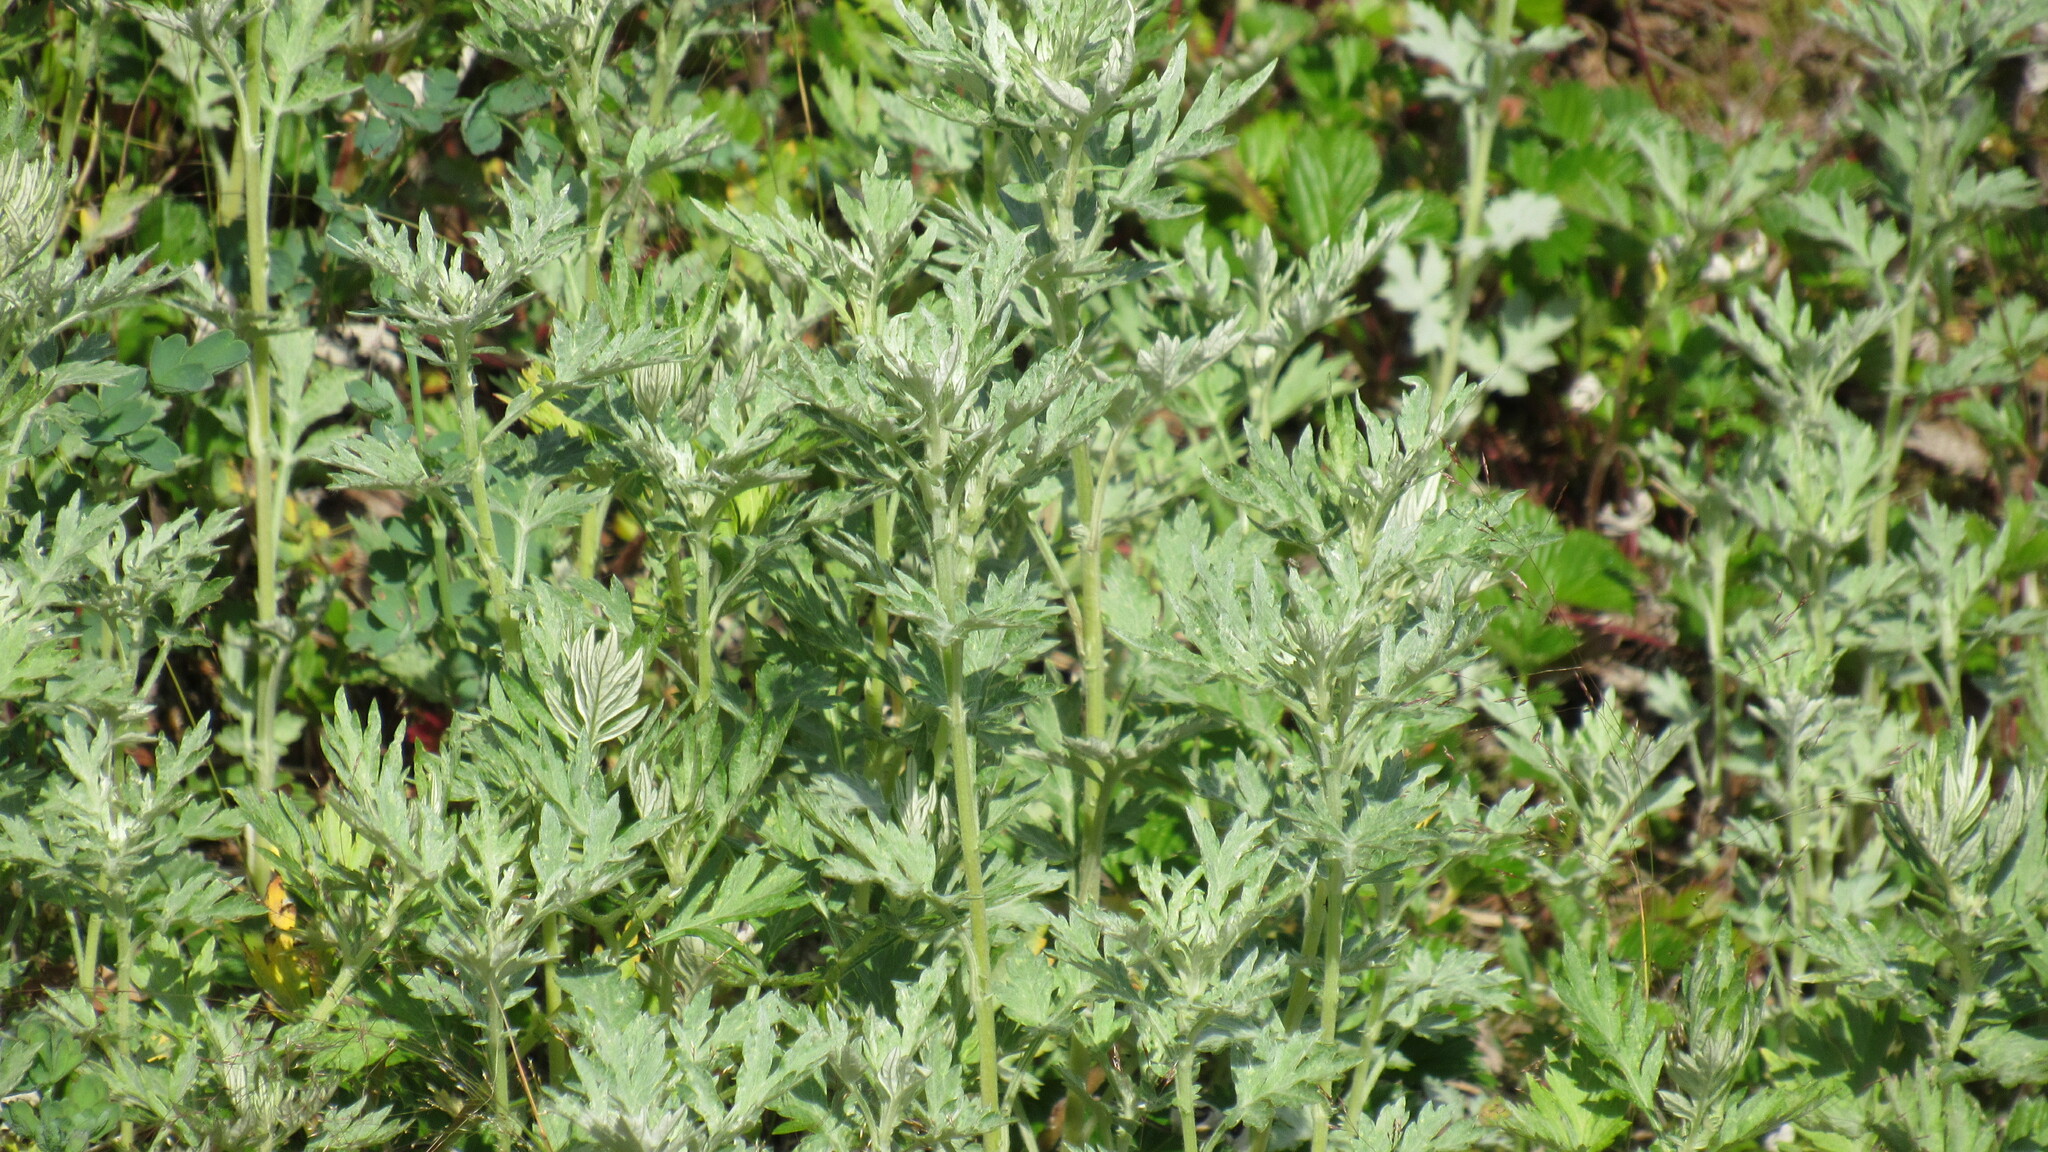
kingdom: Plantae
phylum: Tracheophyta
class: Magnoliopsida
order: Asterales
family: Asteraceae
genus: Artemisia
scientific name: Artemisia vulgaris
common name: Mugwort
